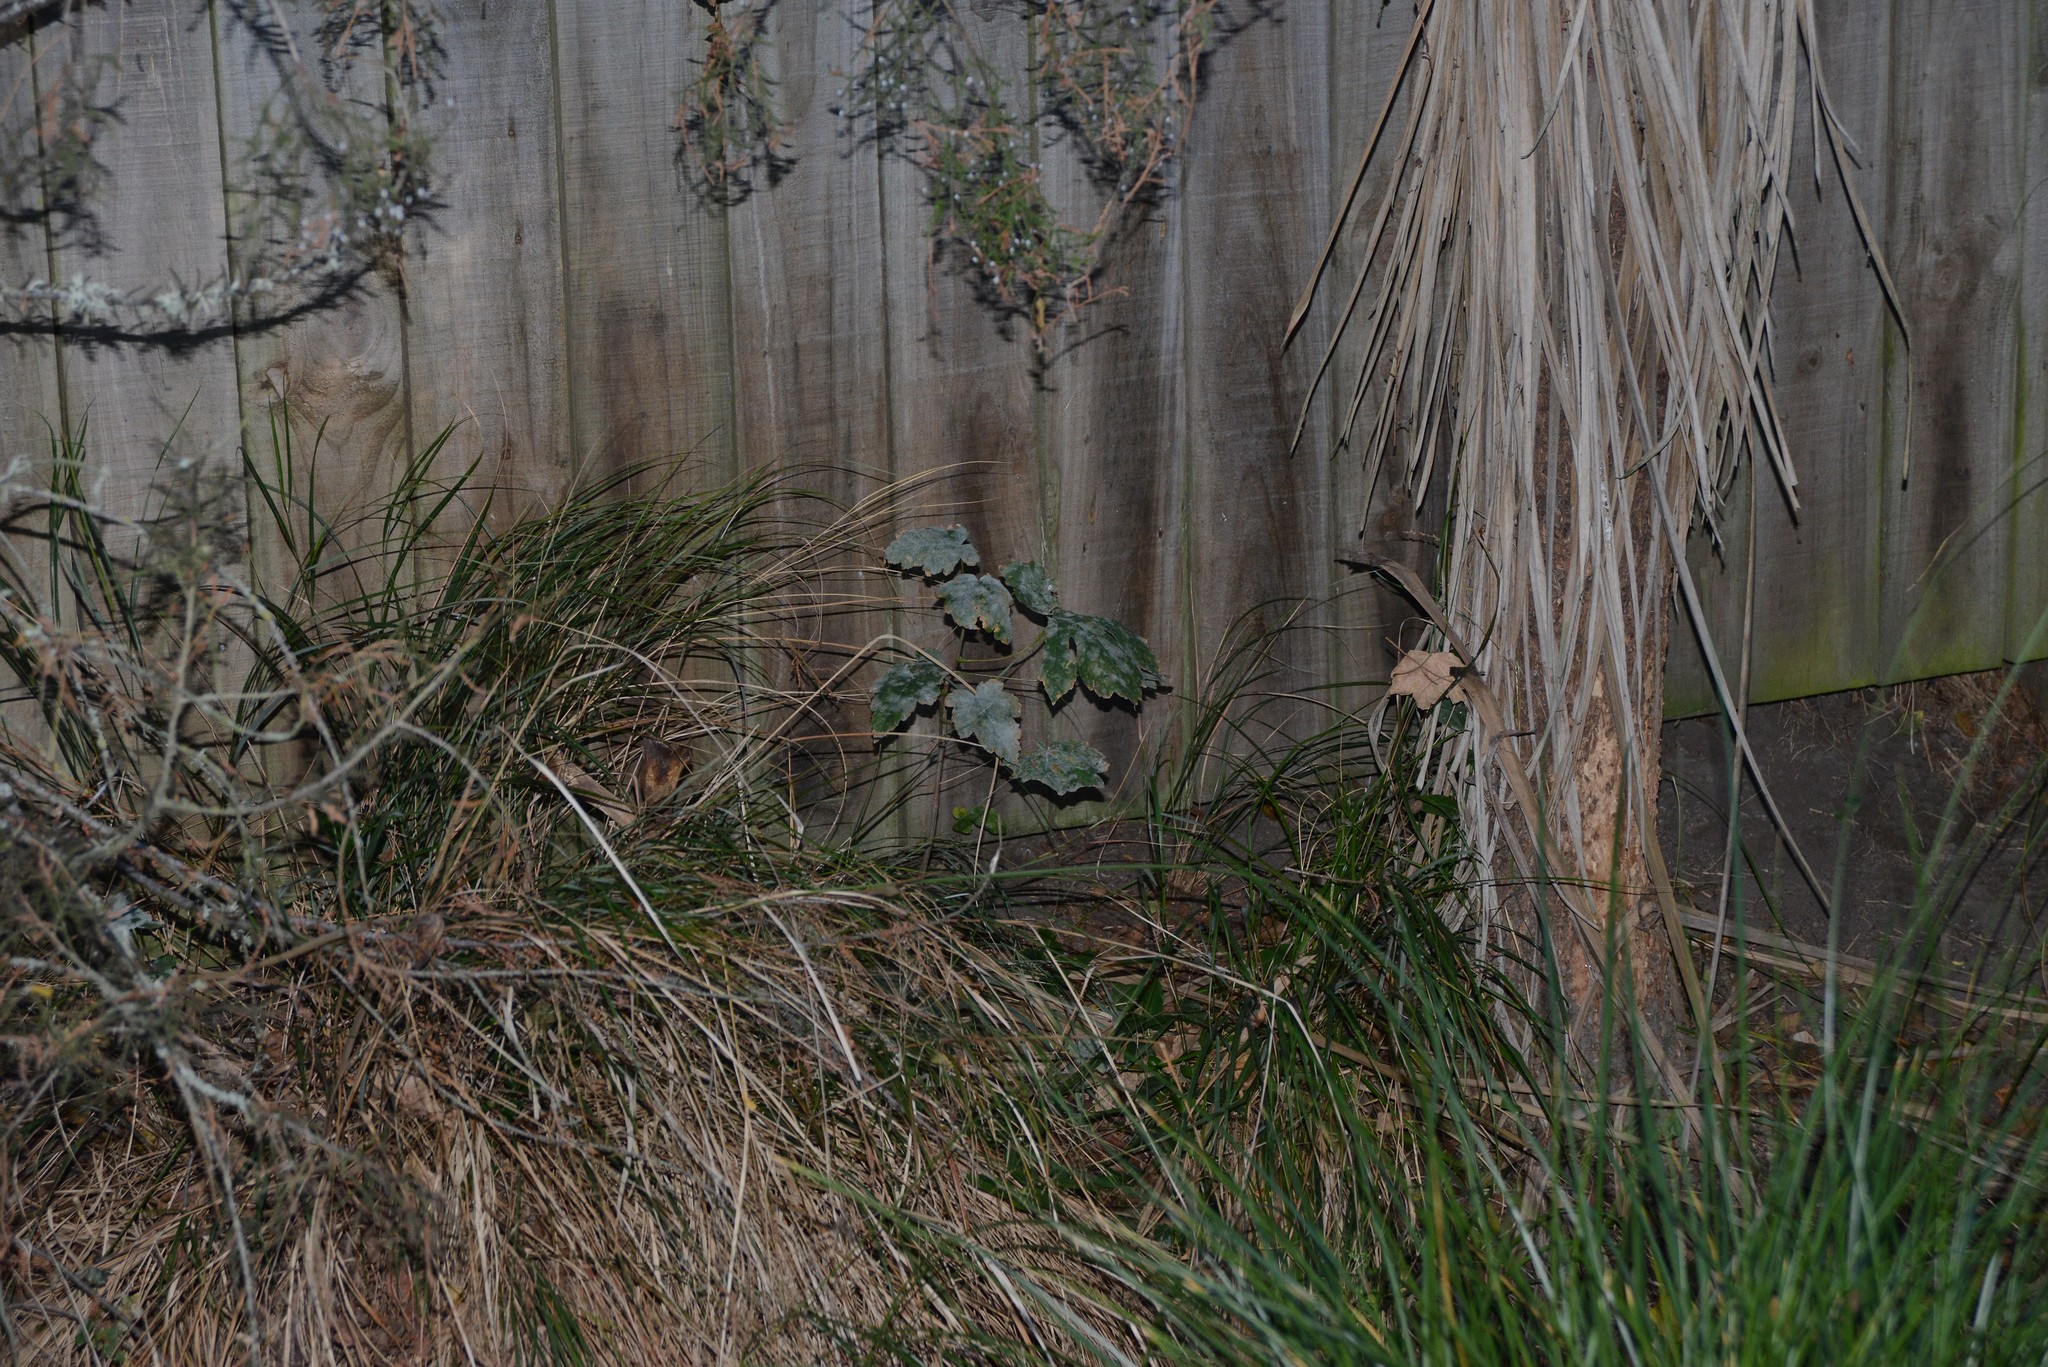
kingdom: Plantae
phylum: Tracheophyta
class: Magnoliopsida
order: Sapindales
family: Sapindaceae
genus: Acer
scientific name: Acer pseudoplatanus
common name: Sycamore
